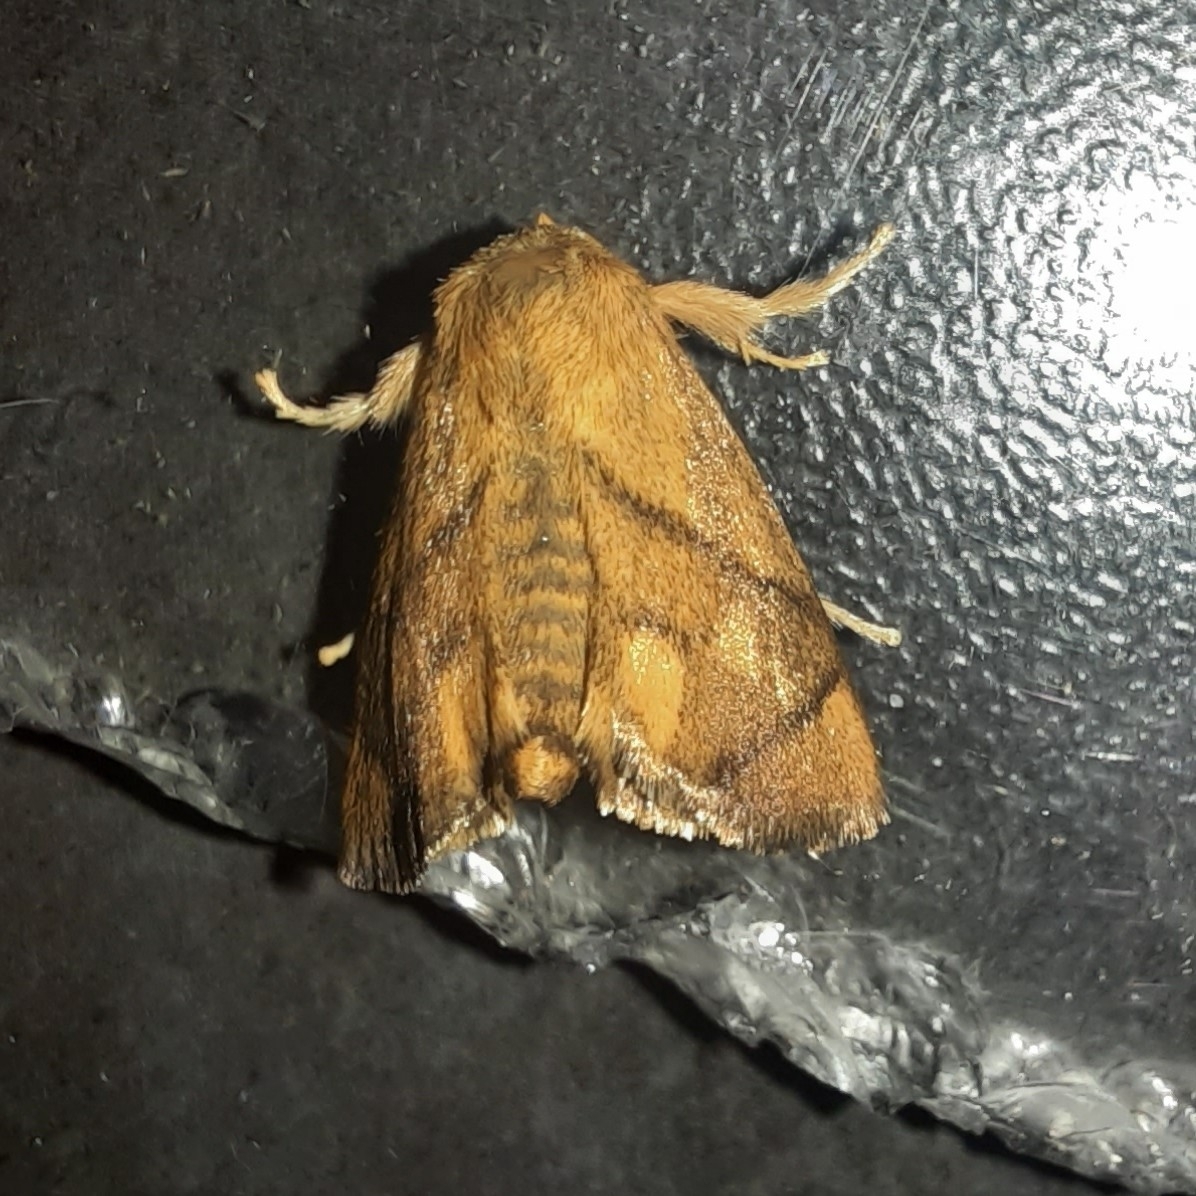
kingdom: Animalia
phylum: Arthropoda
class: Insecta
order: Lepidoptera
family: Limacodidae
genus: Apoda
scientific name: Apoda limacodes
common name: Festoon
